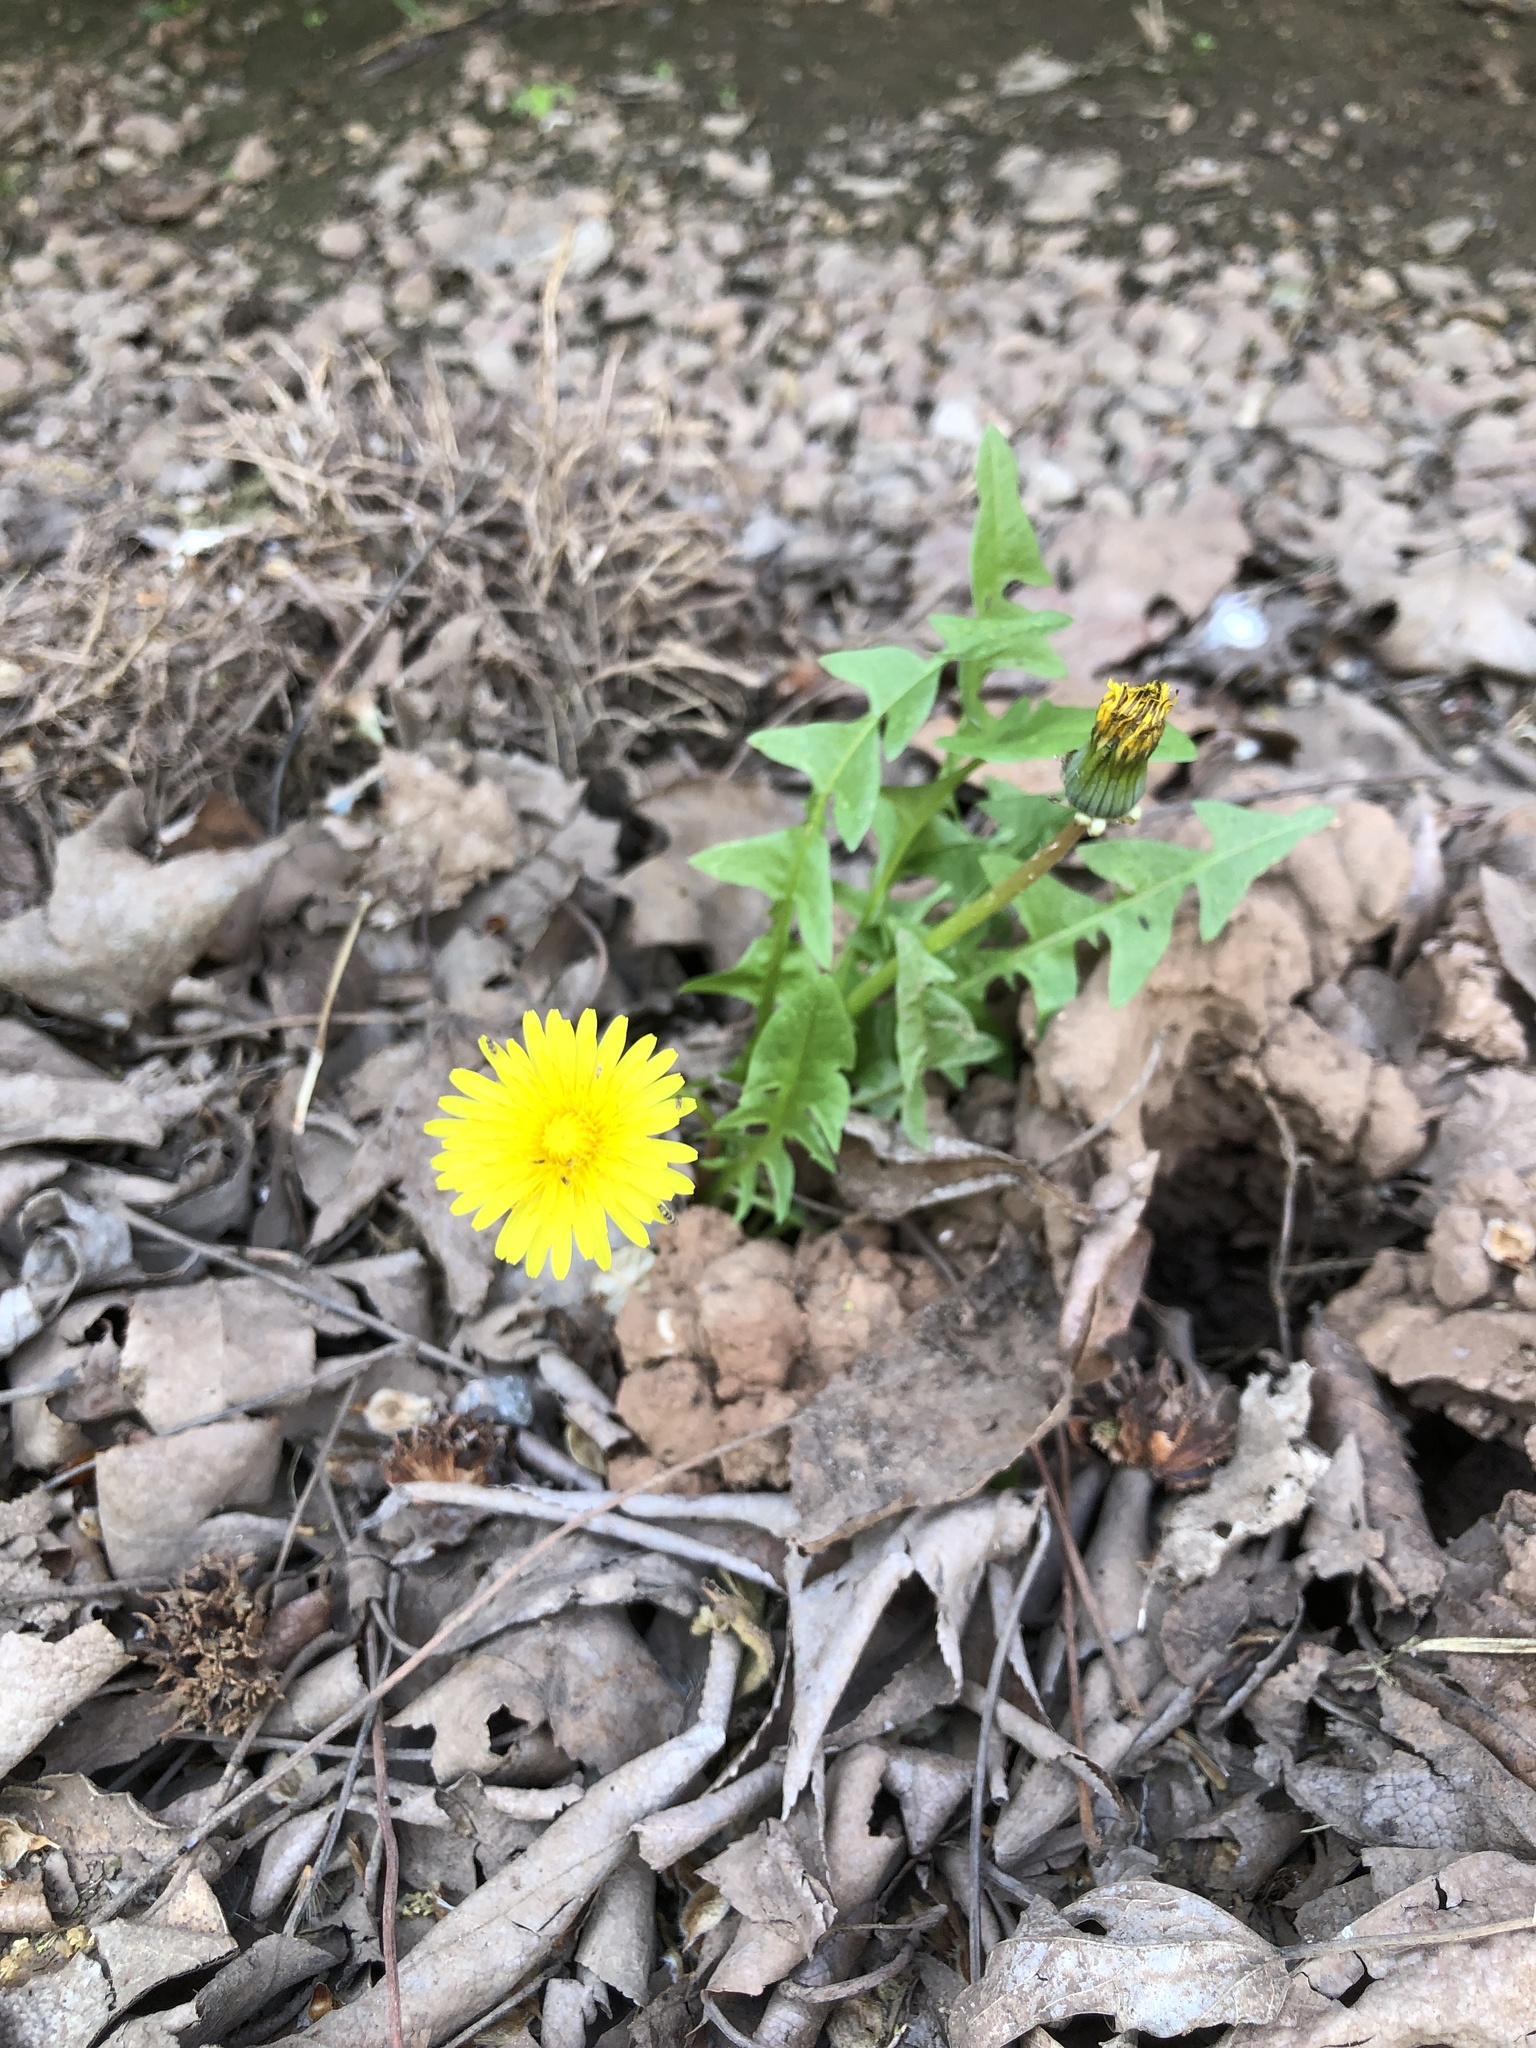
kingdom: Plantae
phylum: Tracheophyta
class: Magnoliopsida
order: Asterales
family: Asteraceae
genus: Taraxacum
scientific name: Taraxacum
